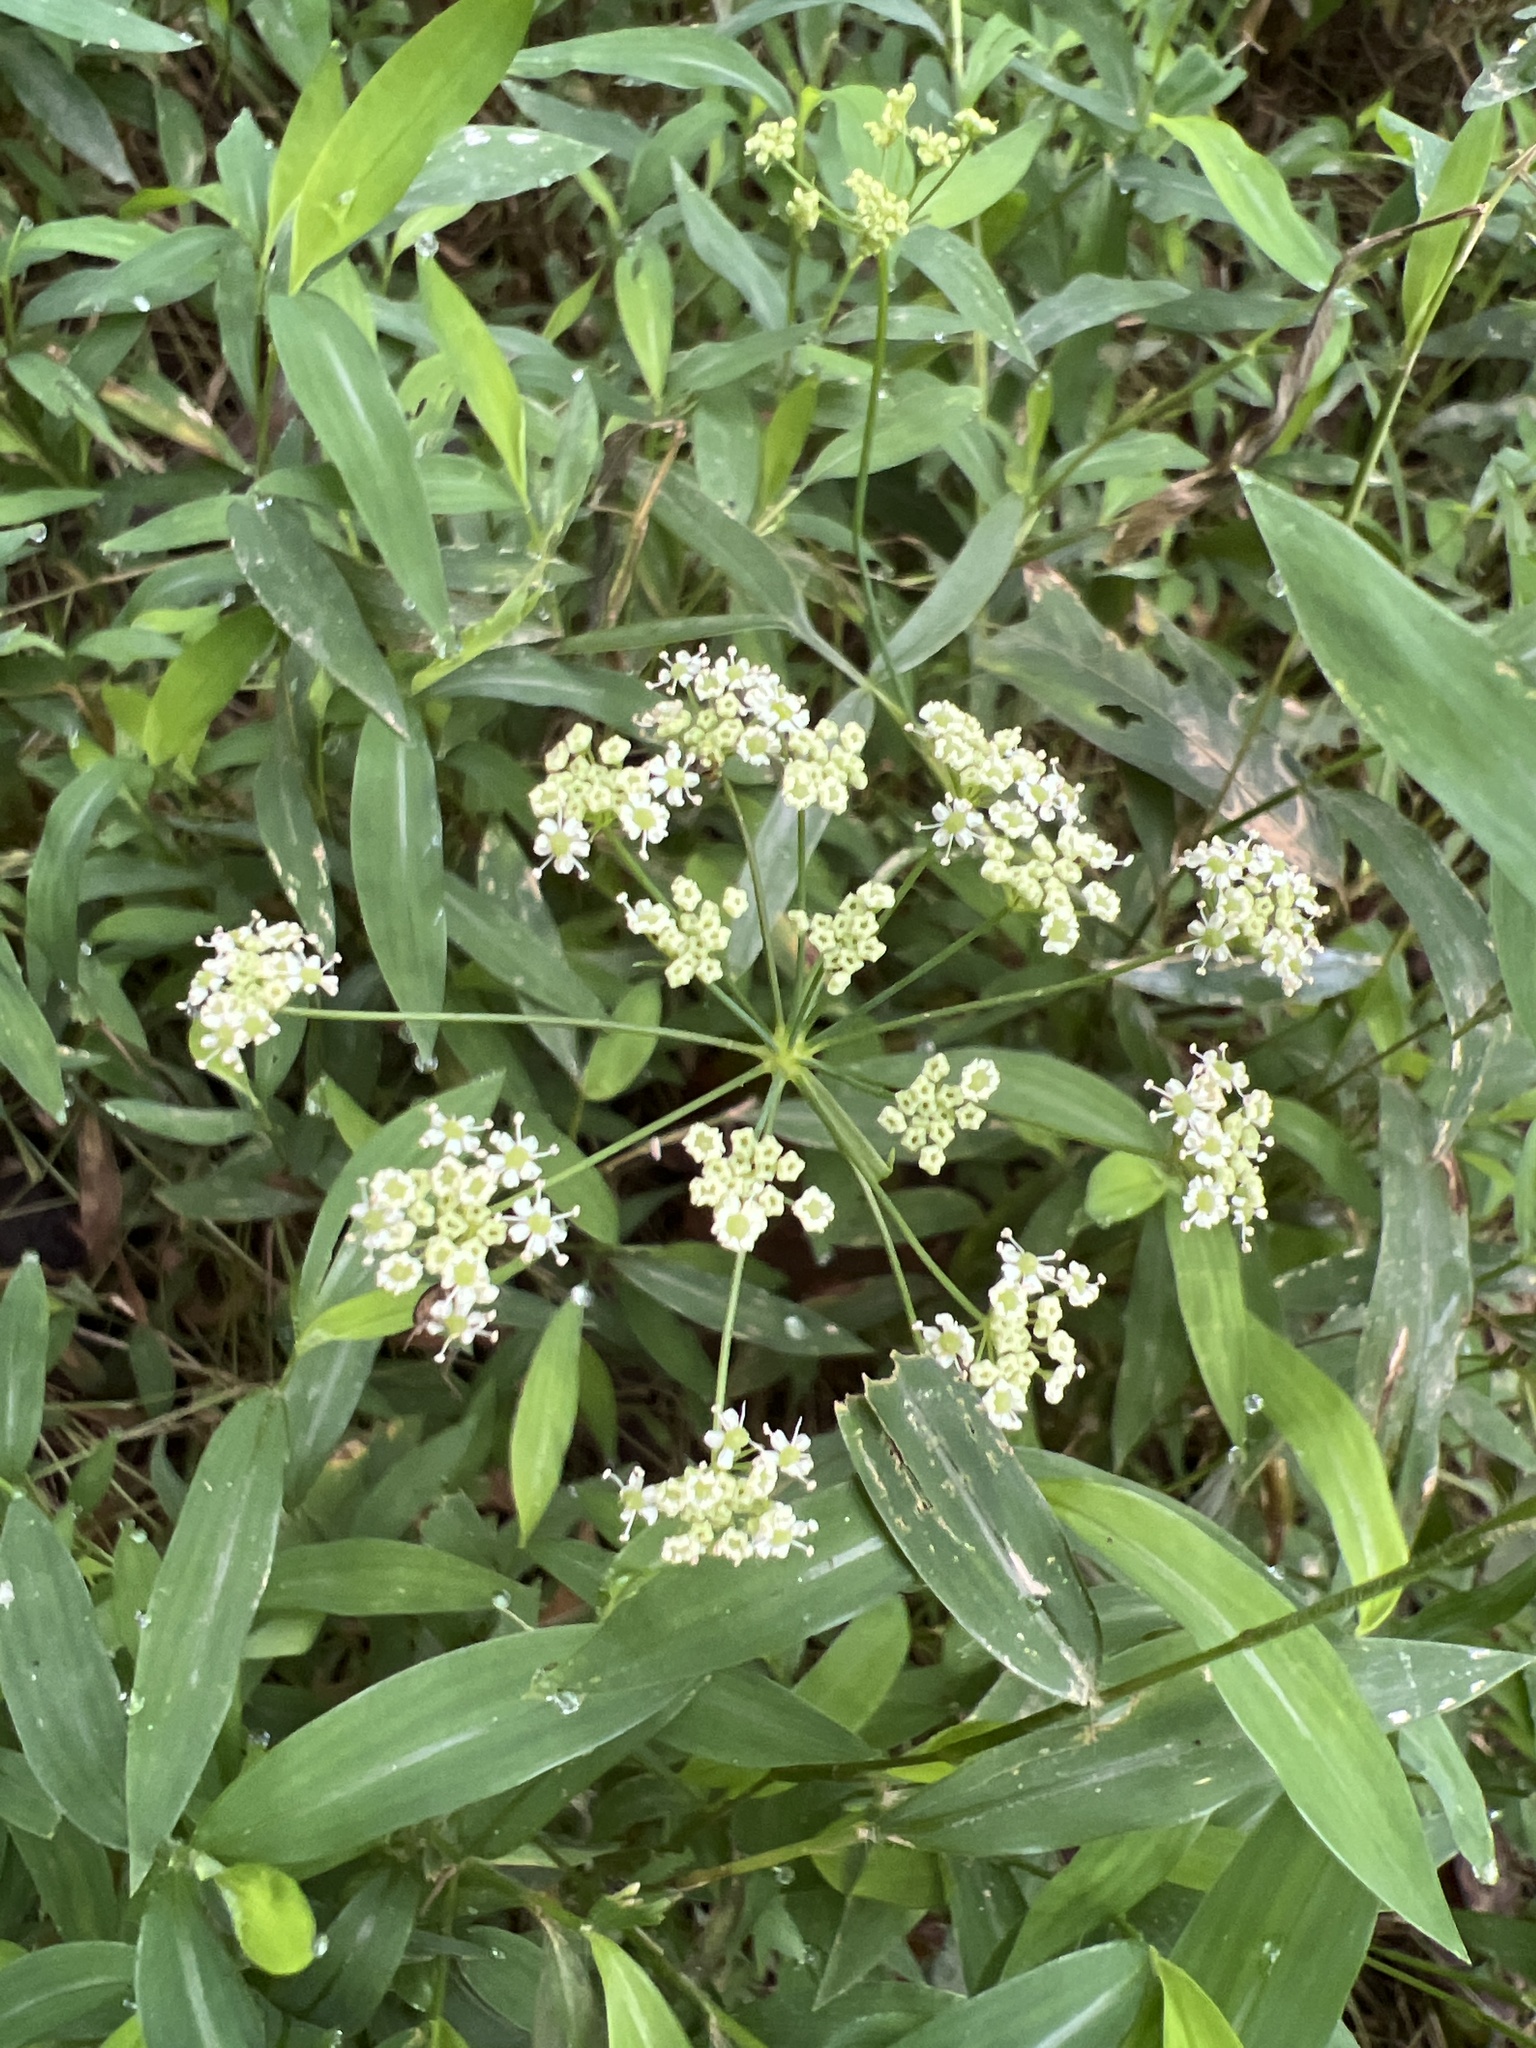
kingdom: Plantae
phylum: Tracheophyta
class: Magnoliopsida
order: Apiales
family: Apiaceae
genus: Oxypolis
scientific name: Oxypolis rigidior
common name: Cowbane
